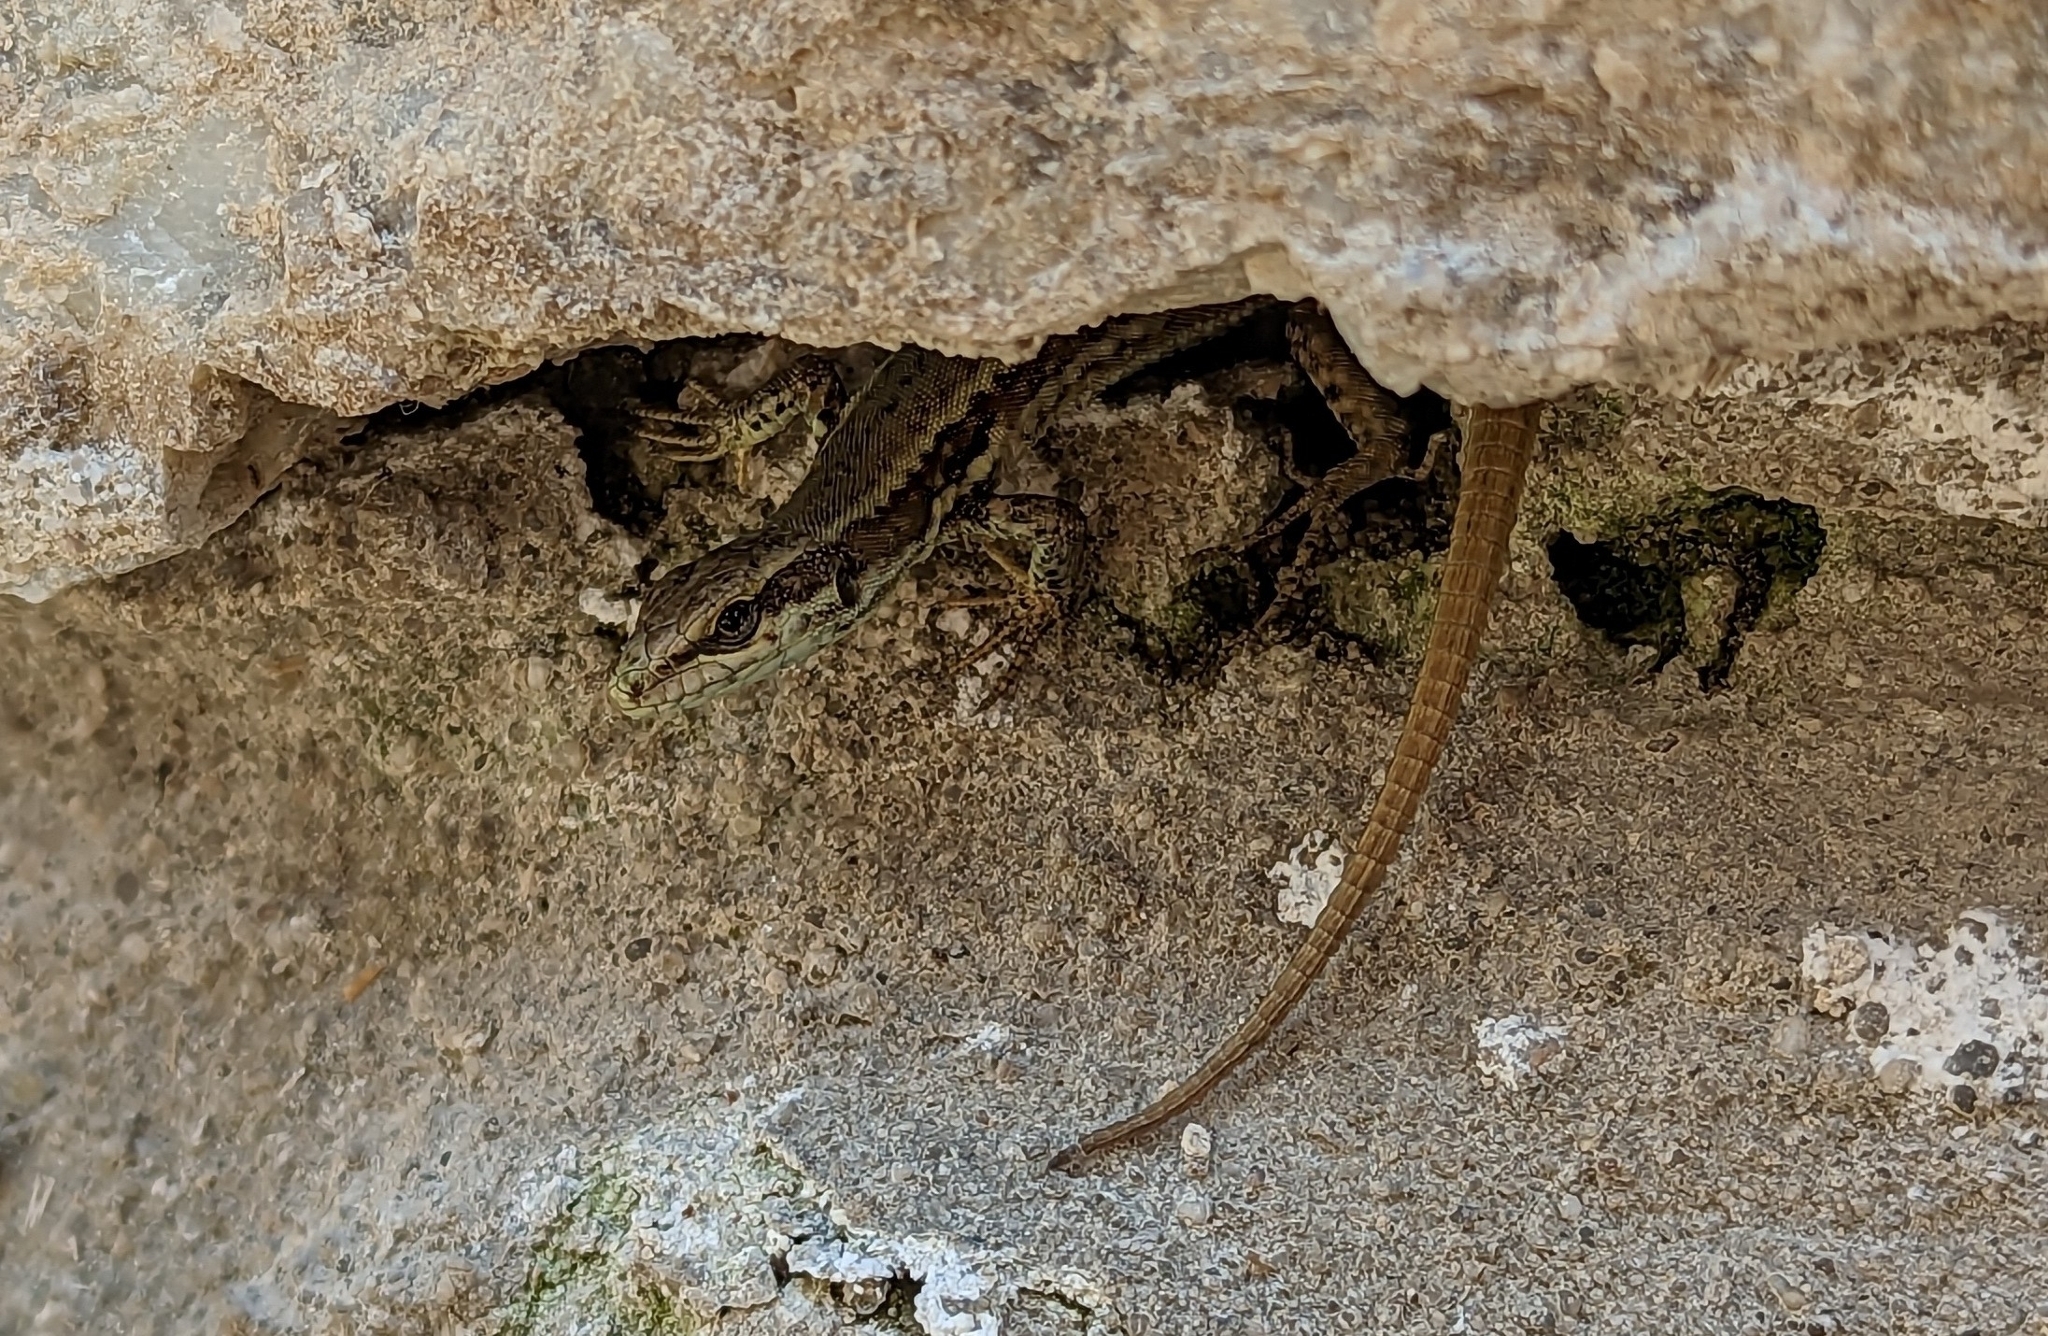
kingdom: Animalia
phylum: Chordata
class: Squamata
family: Lacertidae
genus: Podarcis
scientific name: Podarcis muralis
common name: Common wall lizard
